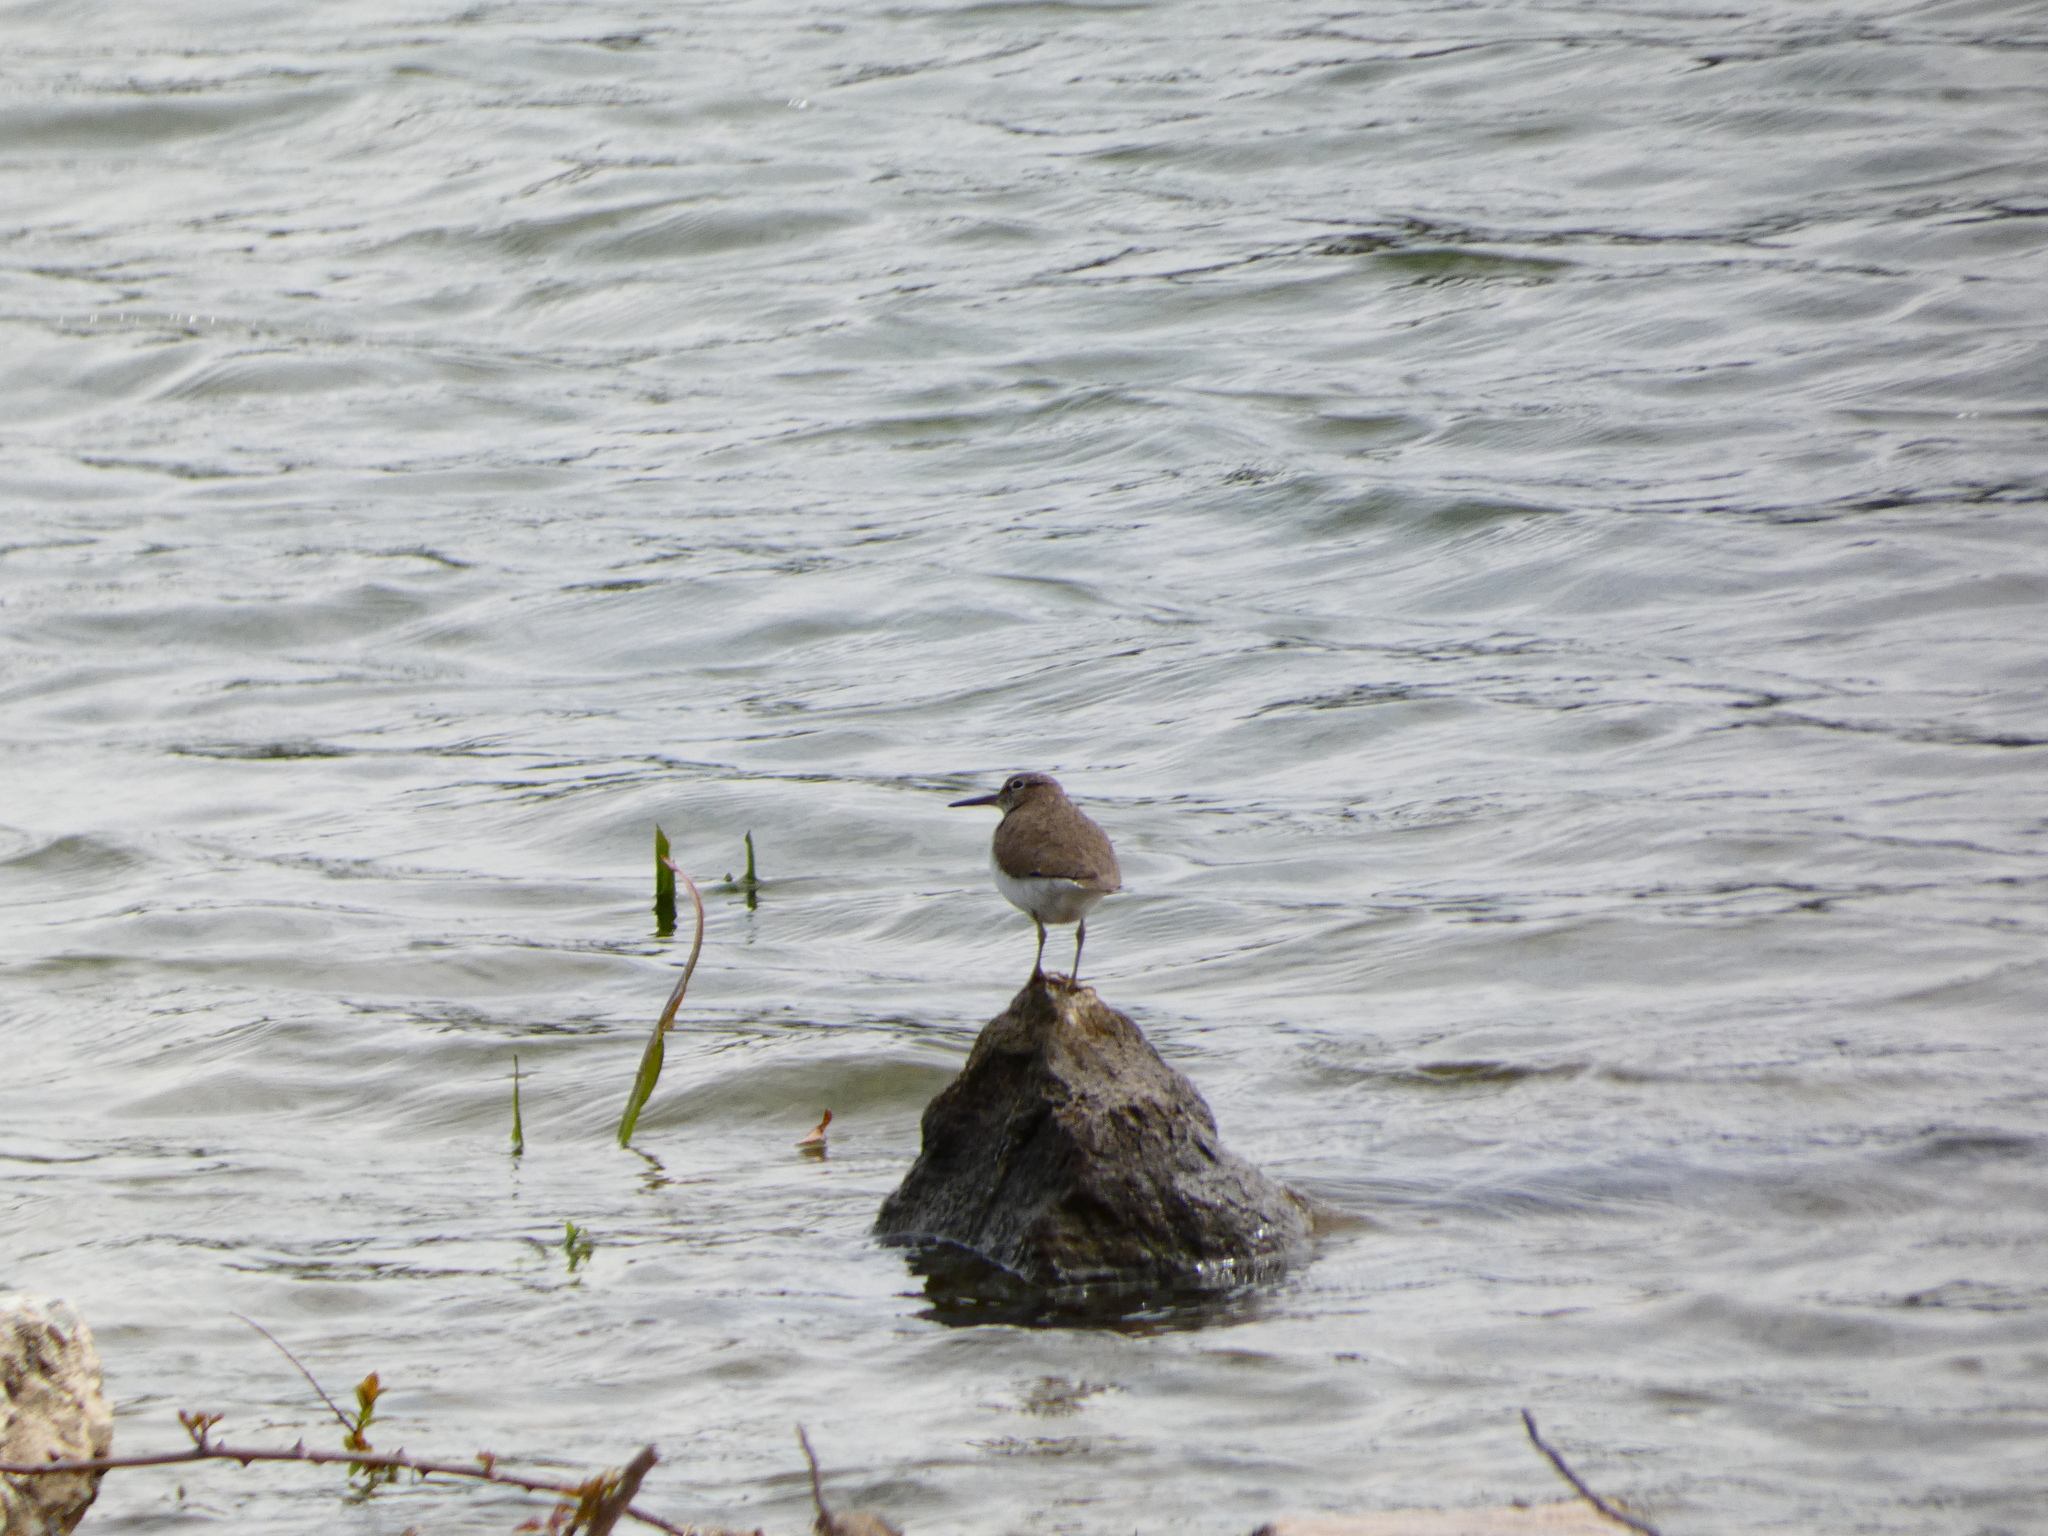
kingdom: Animalia
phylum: Chordata
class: Aves
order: Charadriiformes
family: Scolopacidae
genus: Actitis
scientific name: Actitis hypoleucos
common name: Common sandpiper
